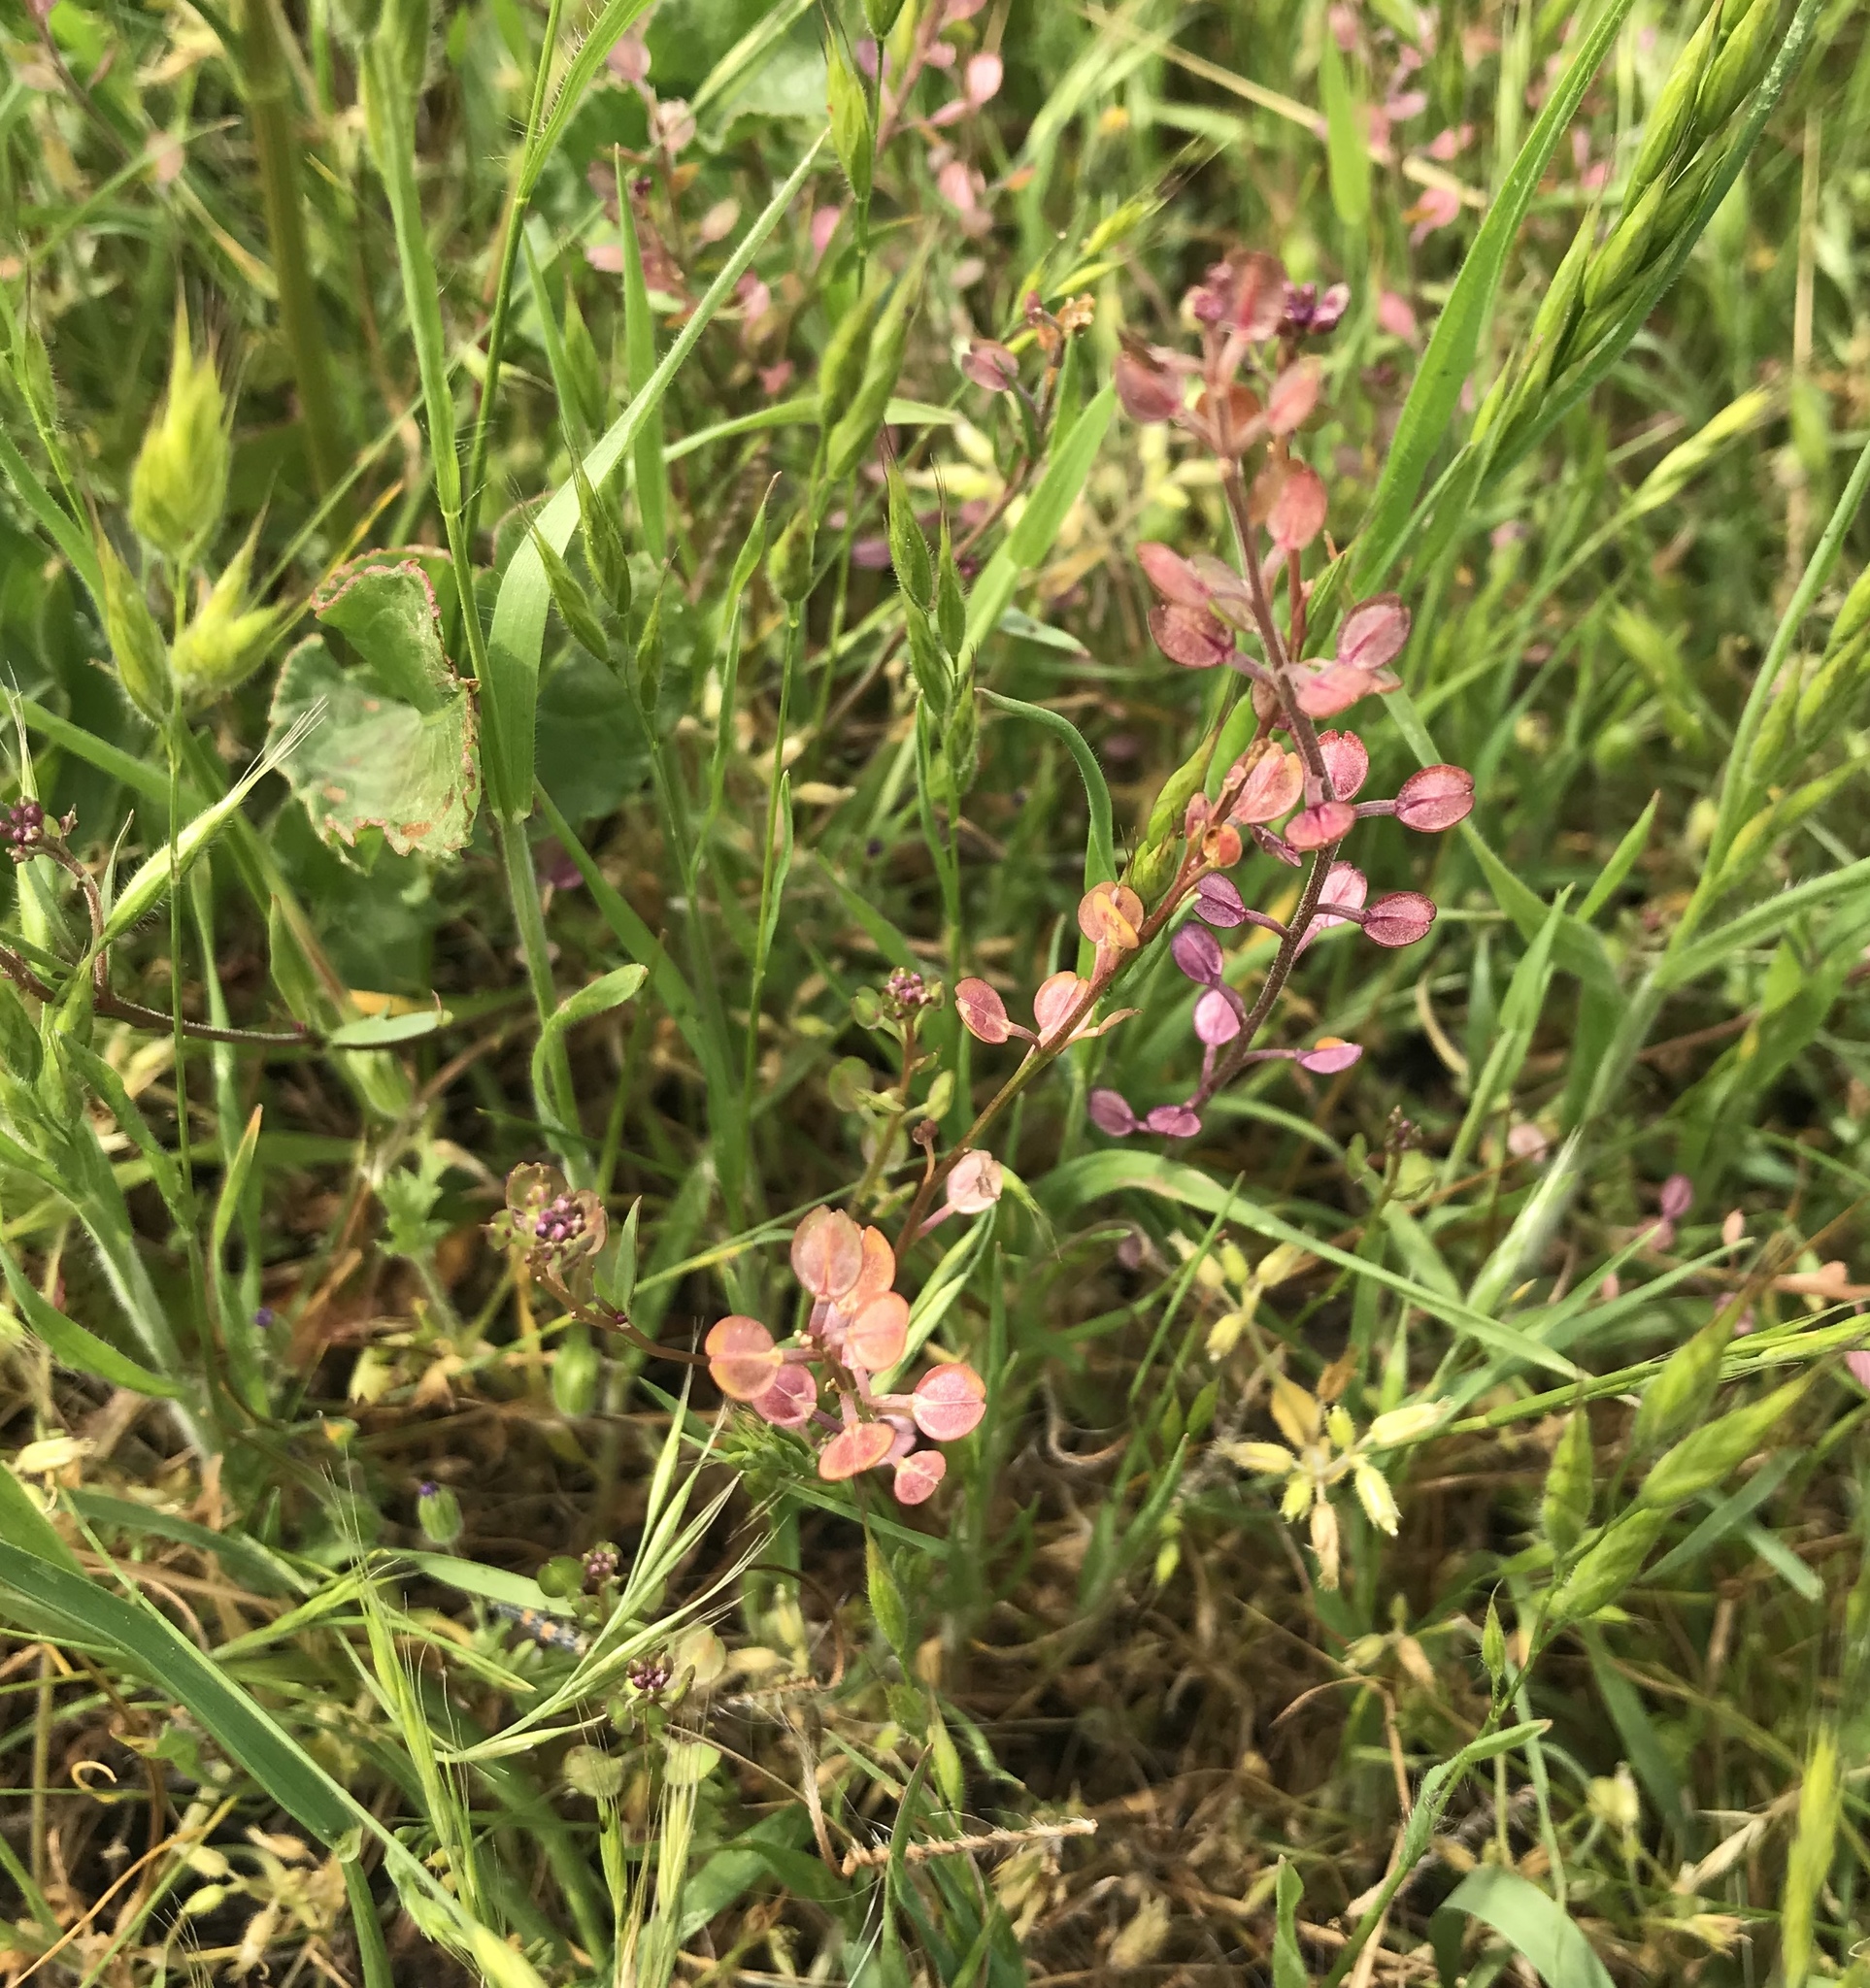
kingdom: Plantae
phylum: Tracheophyta
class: Magnoliopsida
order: Brassicales
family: Brassicaceae
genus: Lepidium
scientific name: Lepidium nitidum
